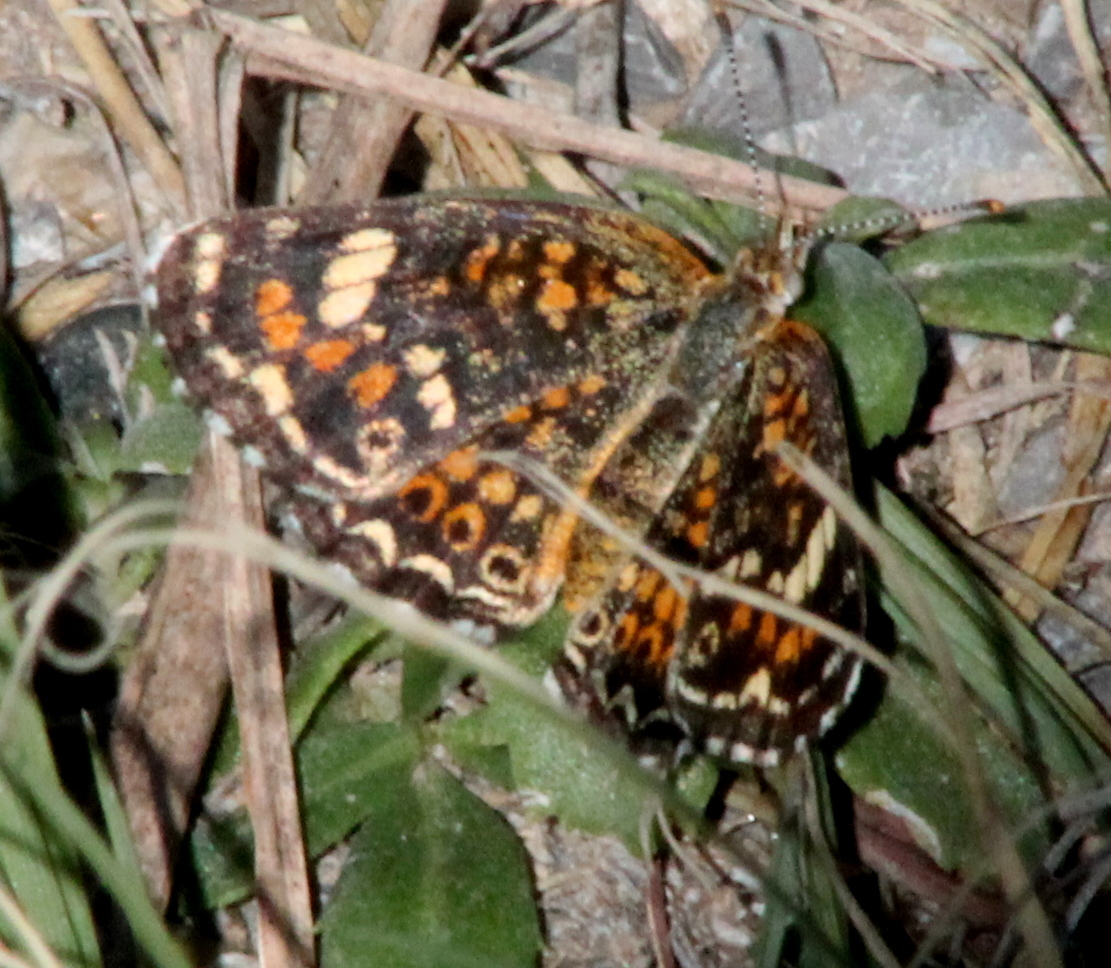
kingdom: Animalia
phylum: Arthropoda
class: Insecta
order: Lepidoptera
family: Nymphalidae
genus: Phyciodes
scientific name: Phyciodes phaon
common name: Phaon crescent
